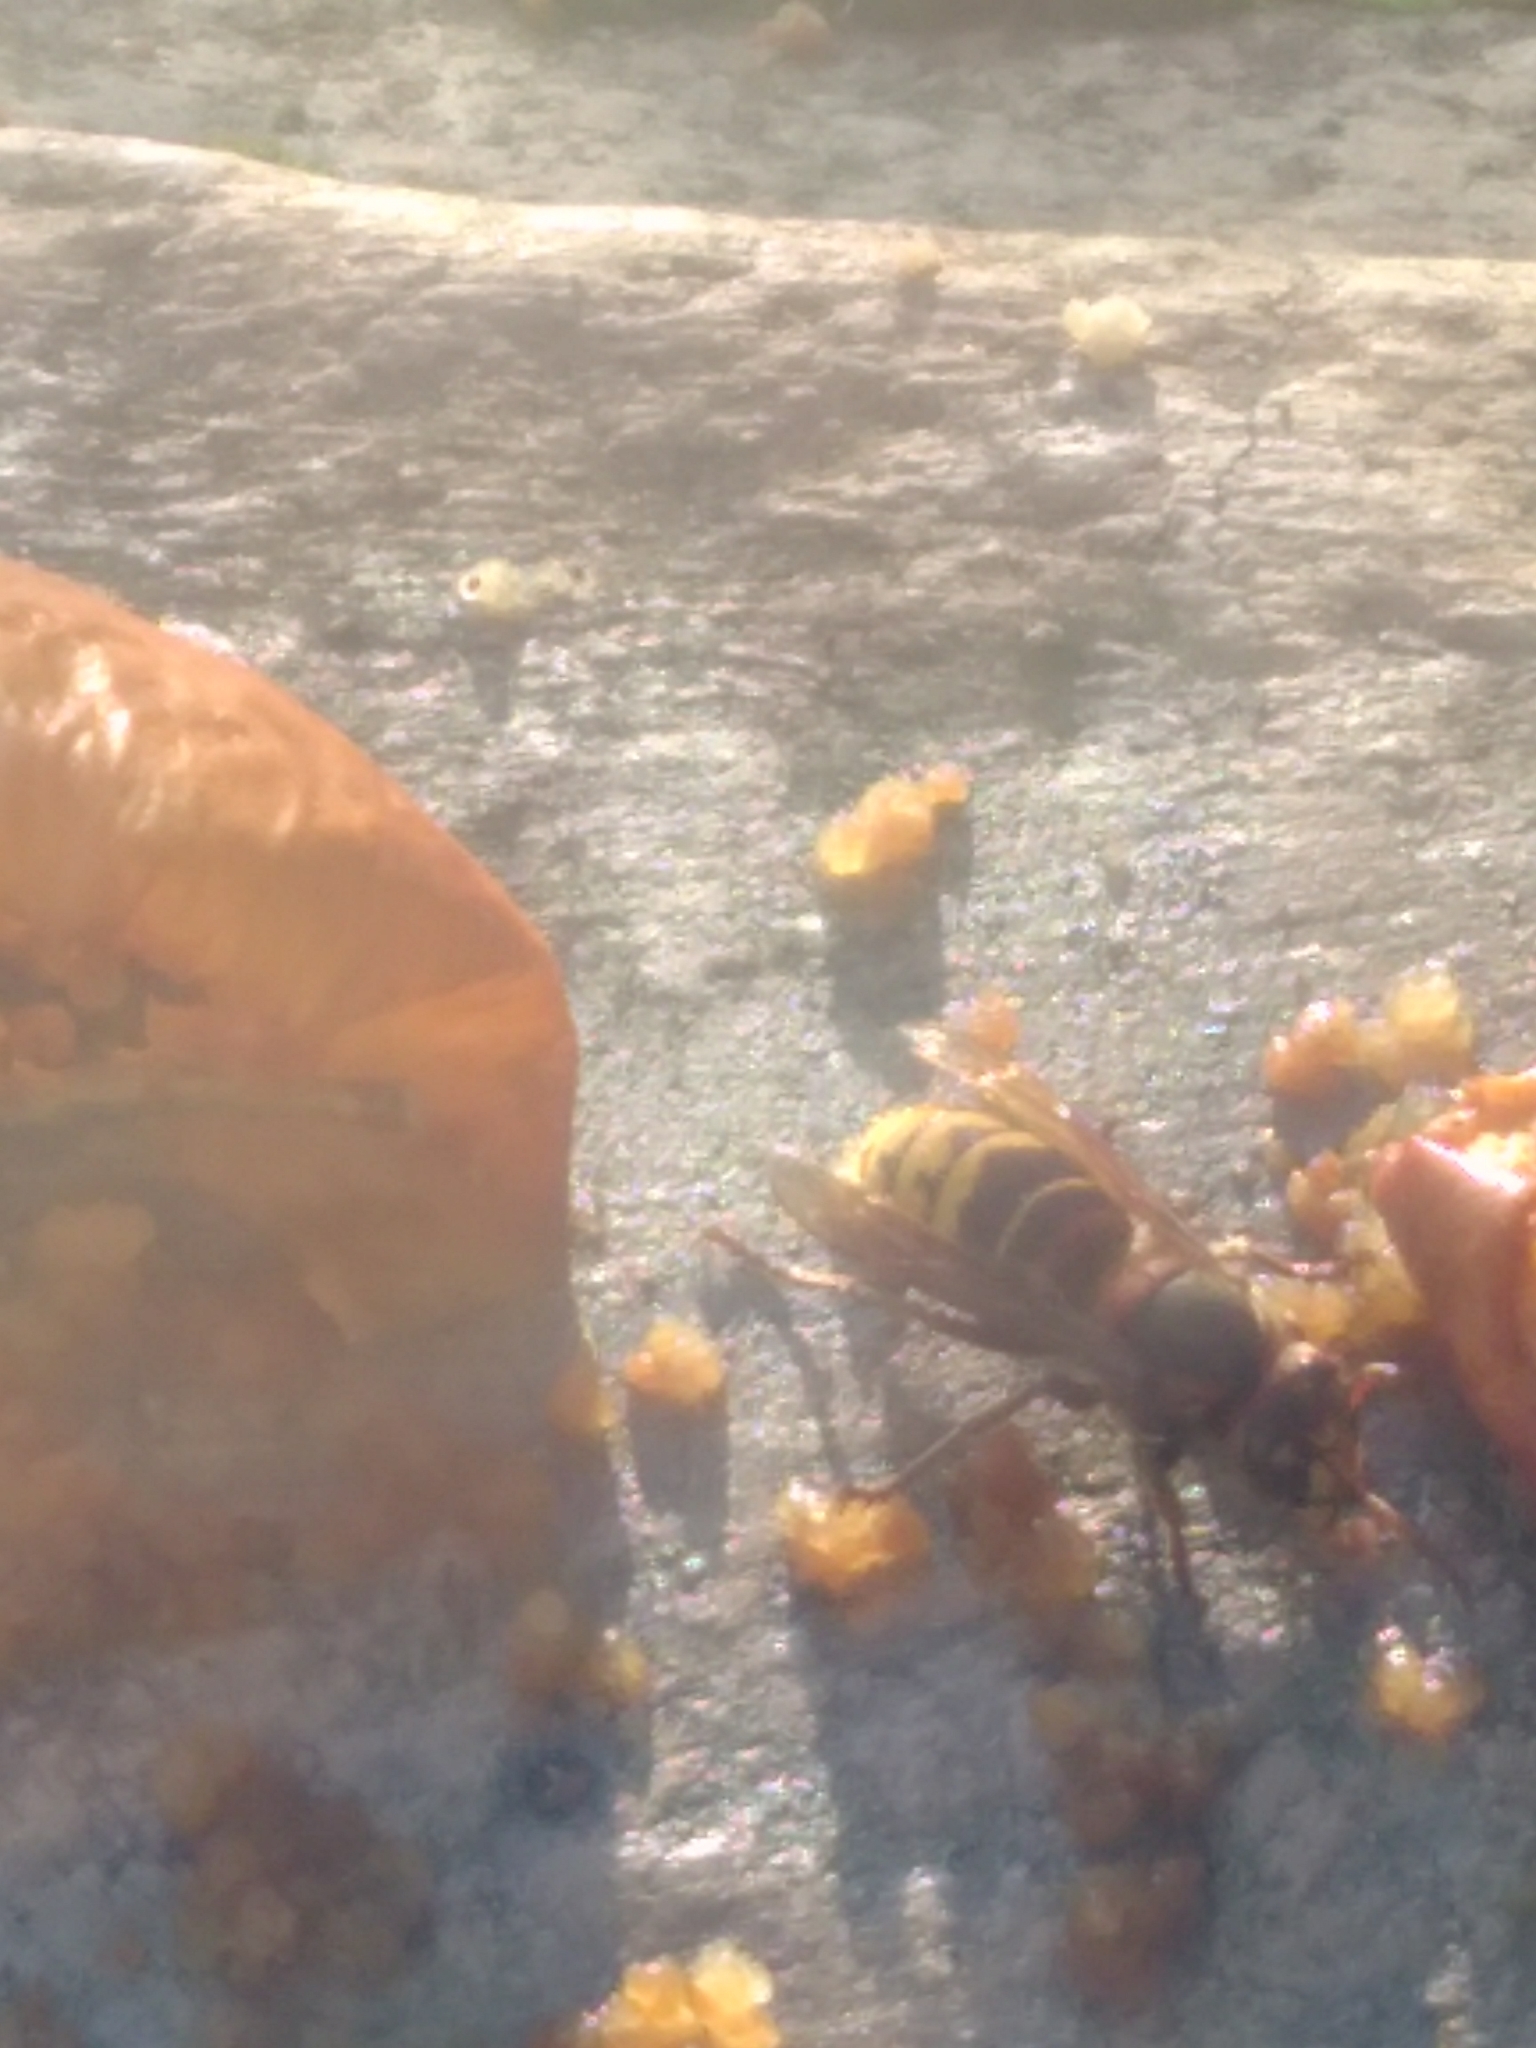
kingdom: Animalia
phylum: Arthropoda
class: Insecta
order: Hymenoptera
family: Vespidae
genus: Vespa
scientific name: Vespa crabro
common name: Hornet
